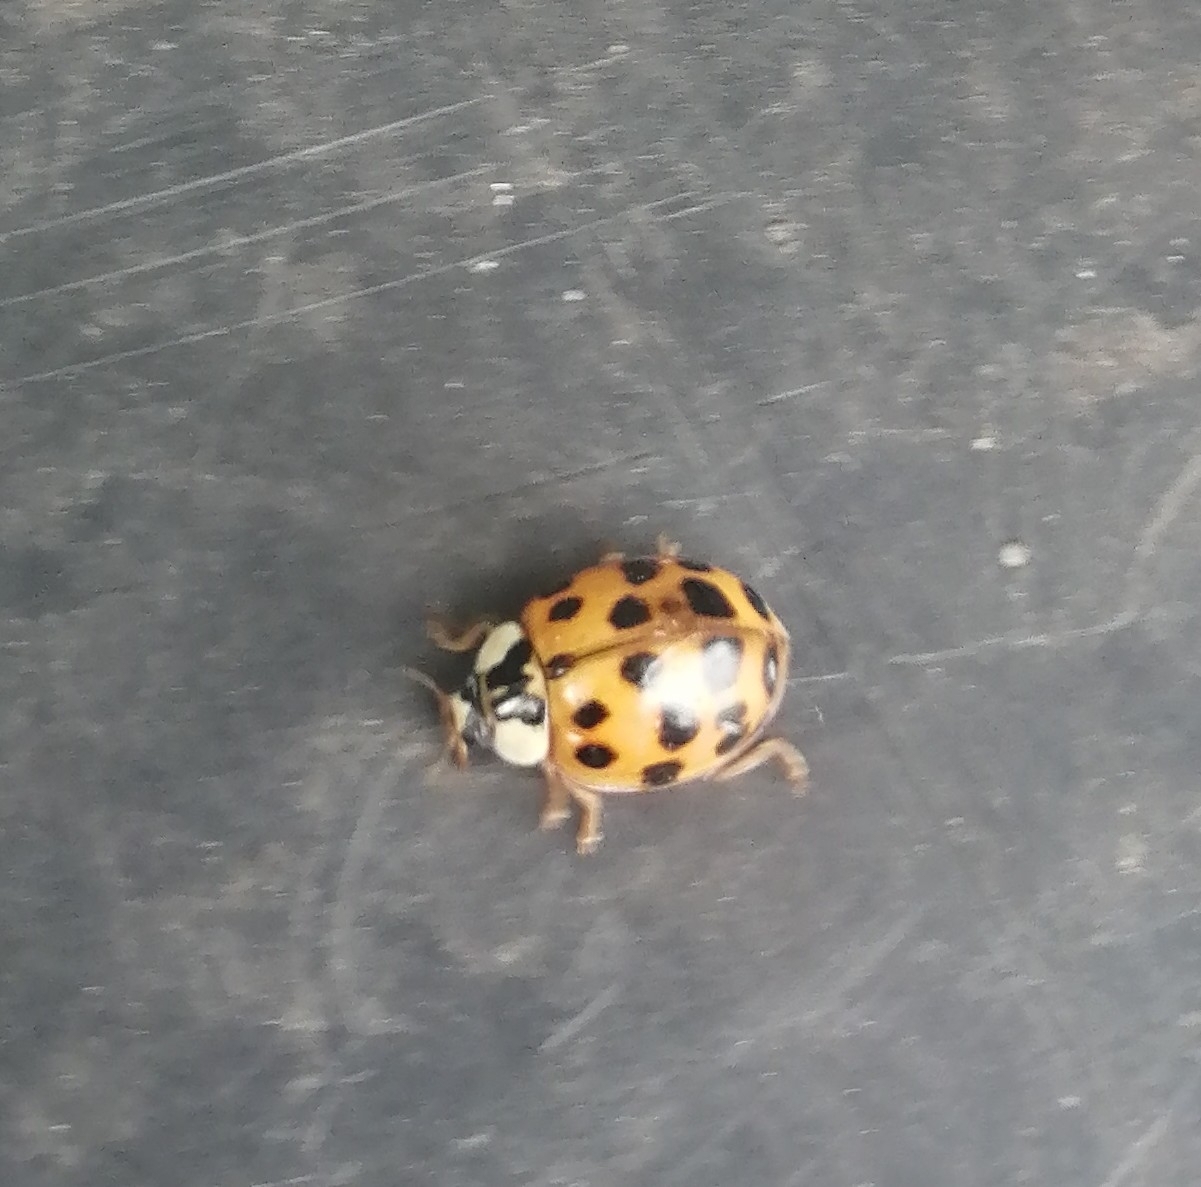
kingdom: Animalia
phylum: Arthropoda
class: Insecta
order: Coleoptera
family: Coccinellidae
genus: Harmonia
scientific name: Harmonia axyridis
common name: Harlequin ladybird
